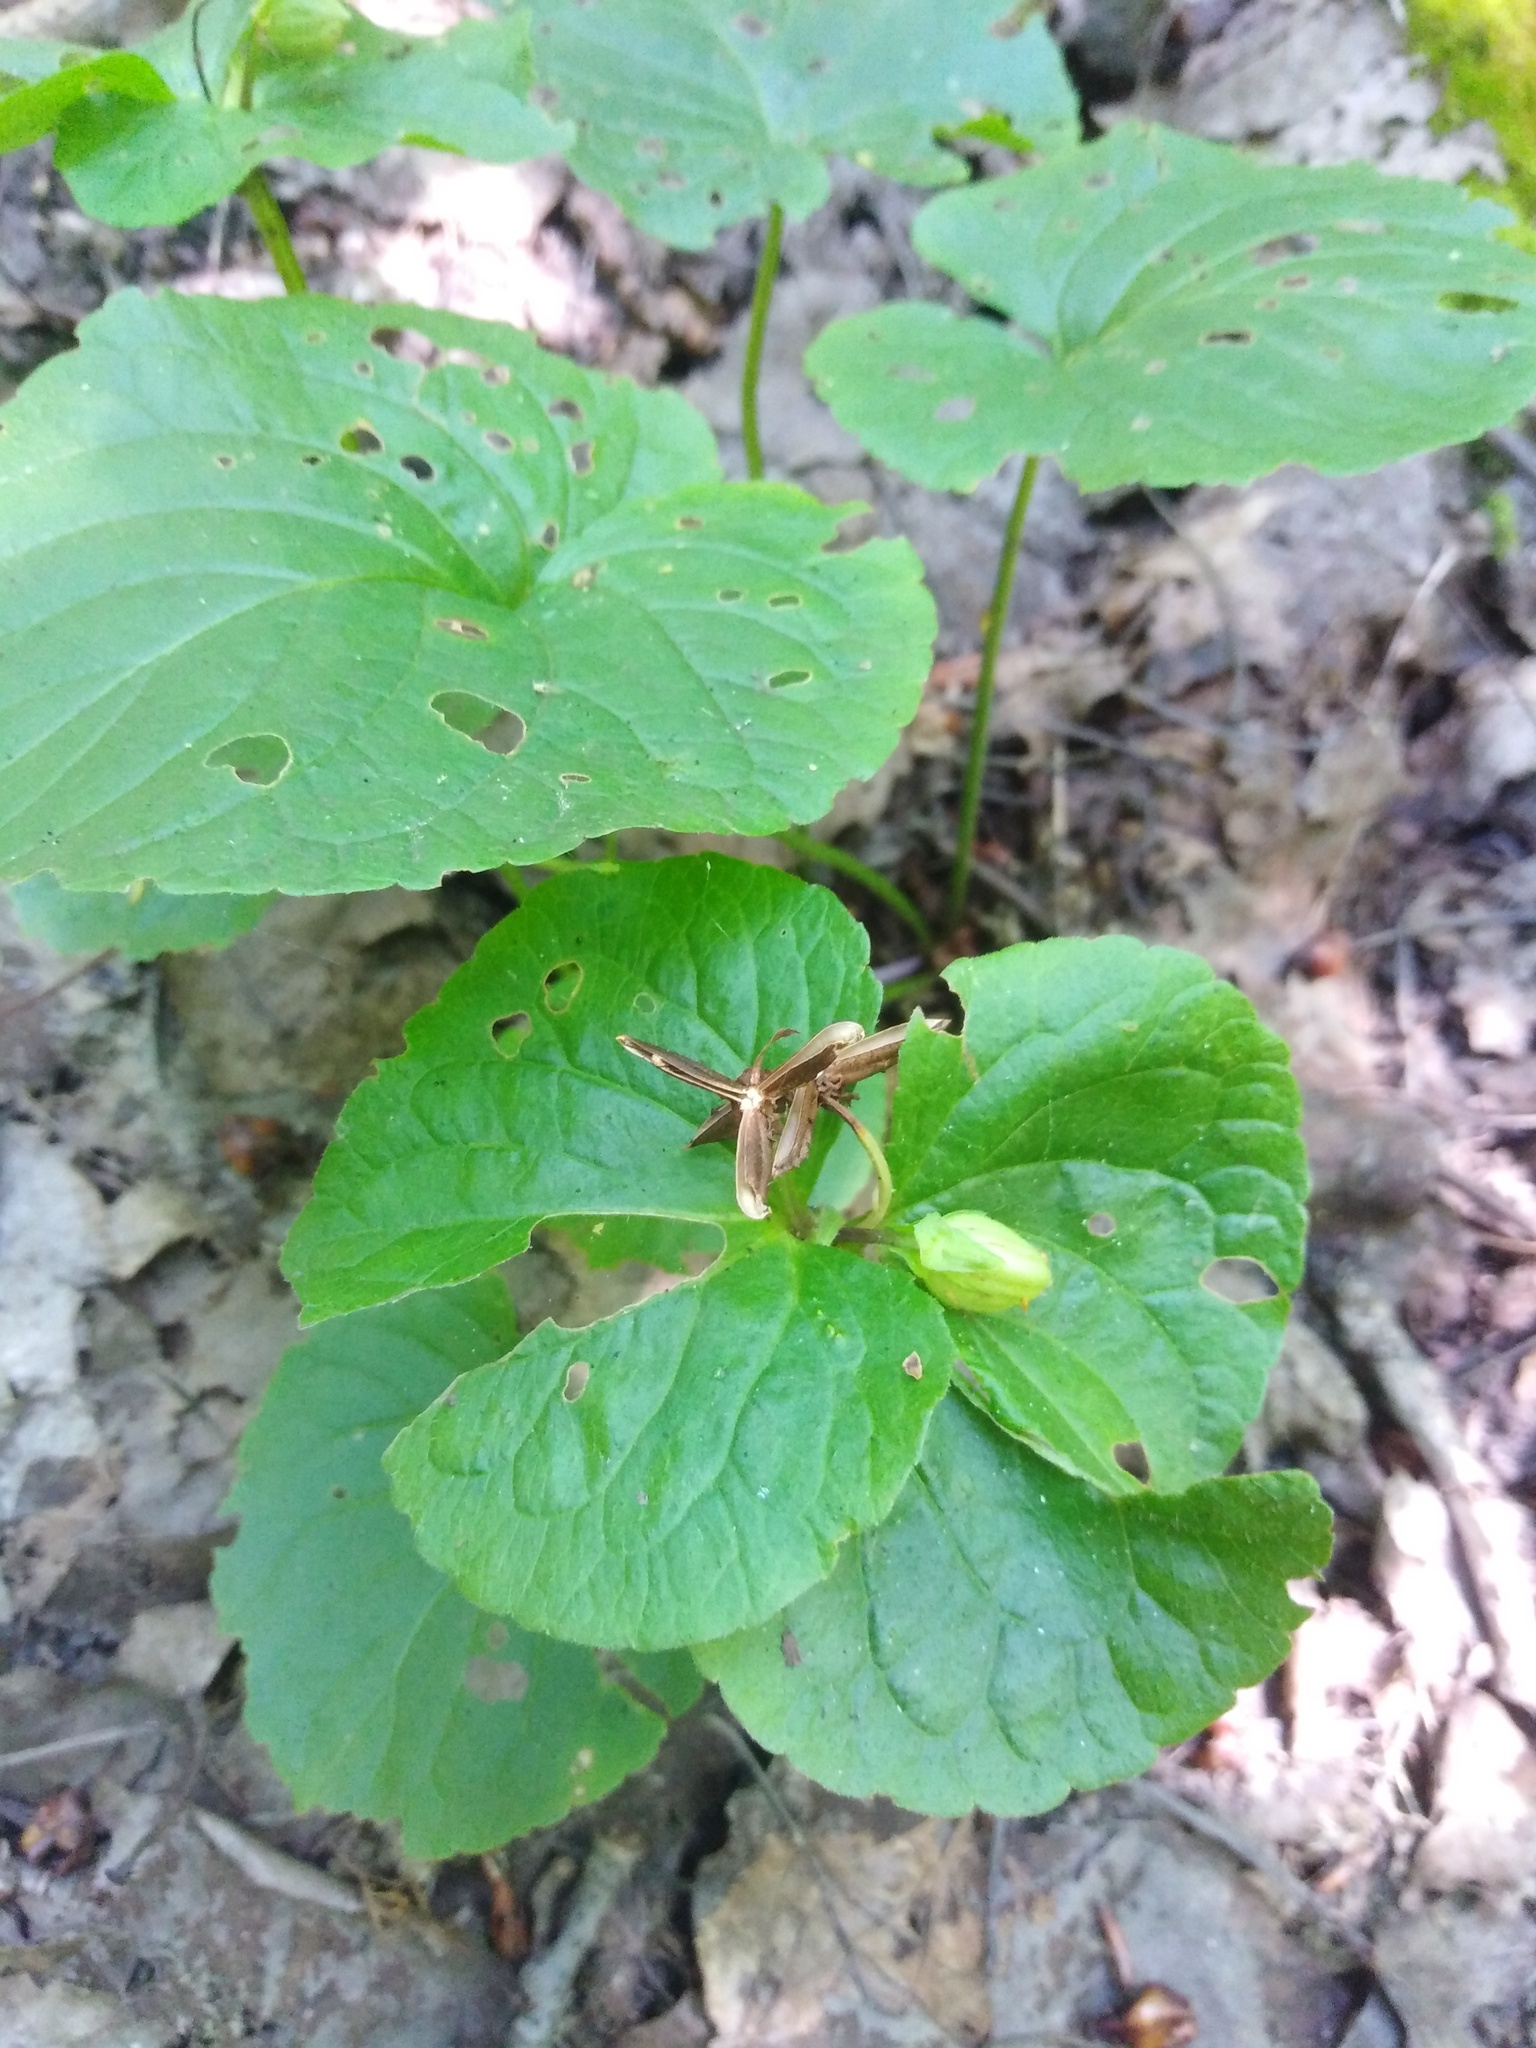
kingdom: Plantae
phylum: Tracheophyta
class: Magnoliopsida
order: Malpighiales
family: Violaceae
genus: Viola
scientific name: Viola mirabilis
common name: Wonder violet
